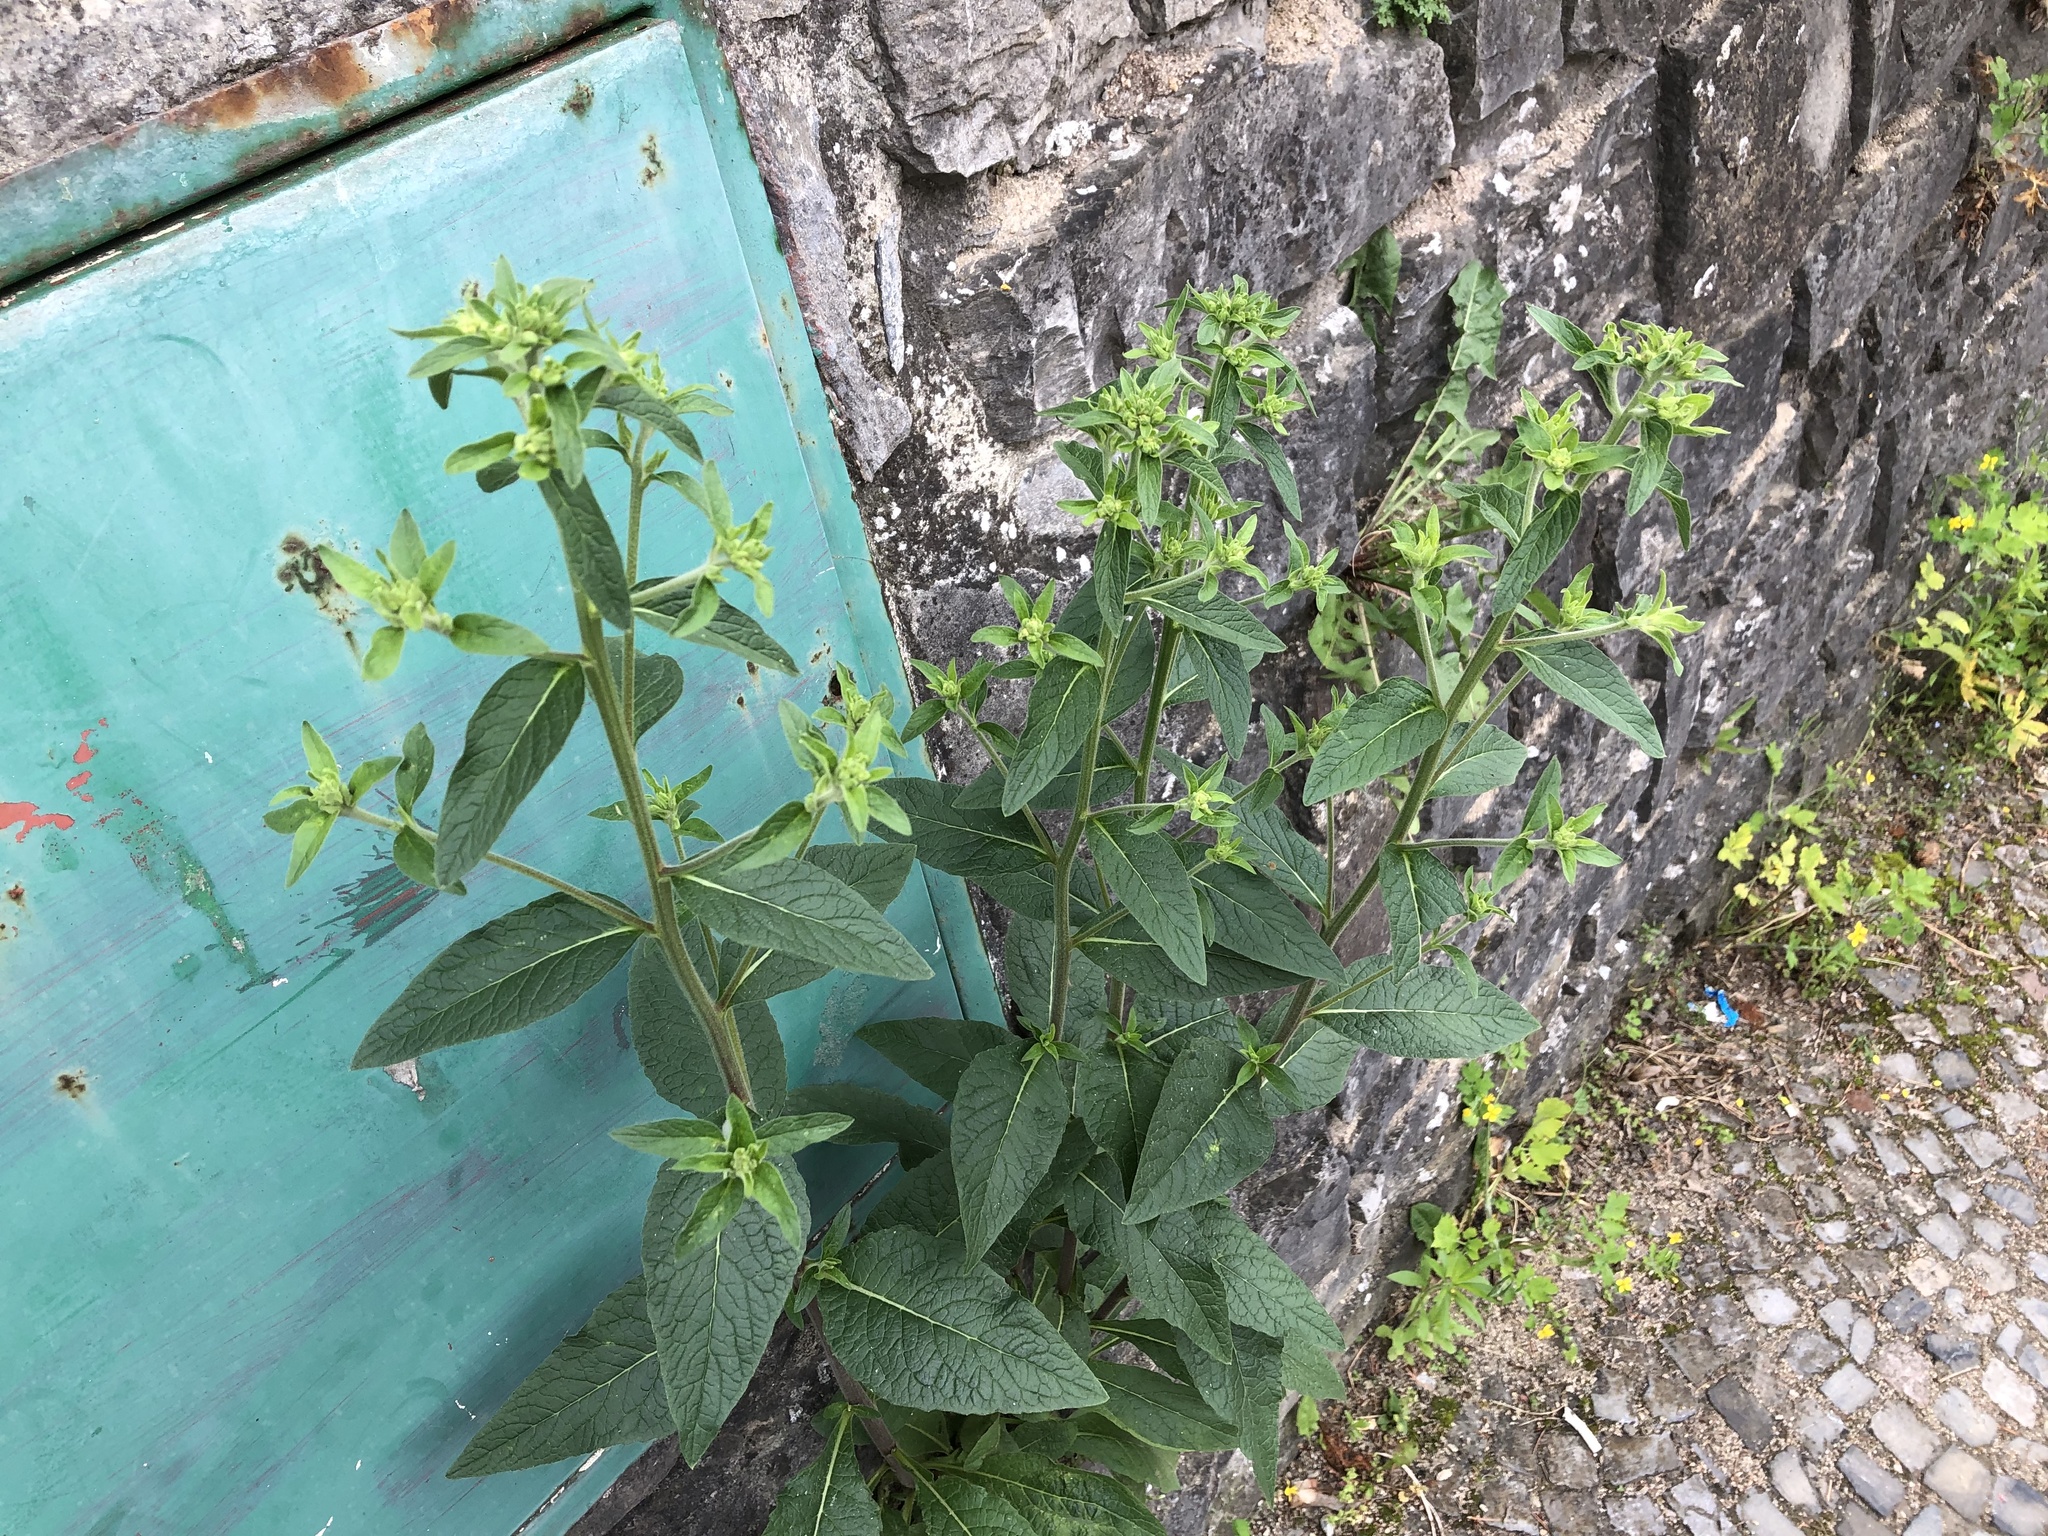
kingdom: Plantae
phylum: Tracheophyta
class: Magnoliopsida
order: Asterales
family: Asteraceae
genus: Pentanema
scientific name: Pentanema squarrosum
